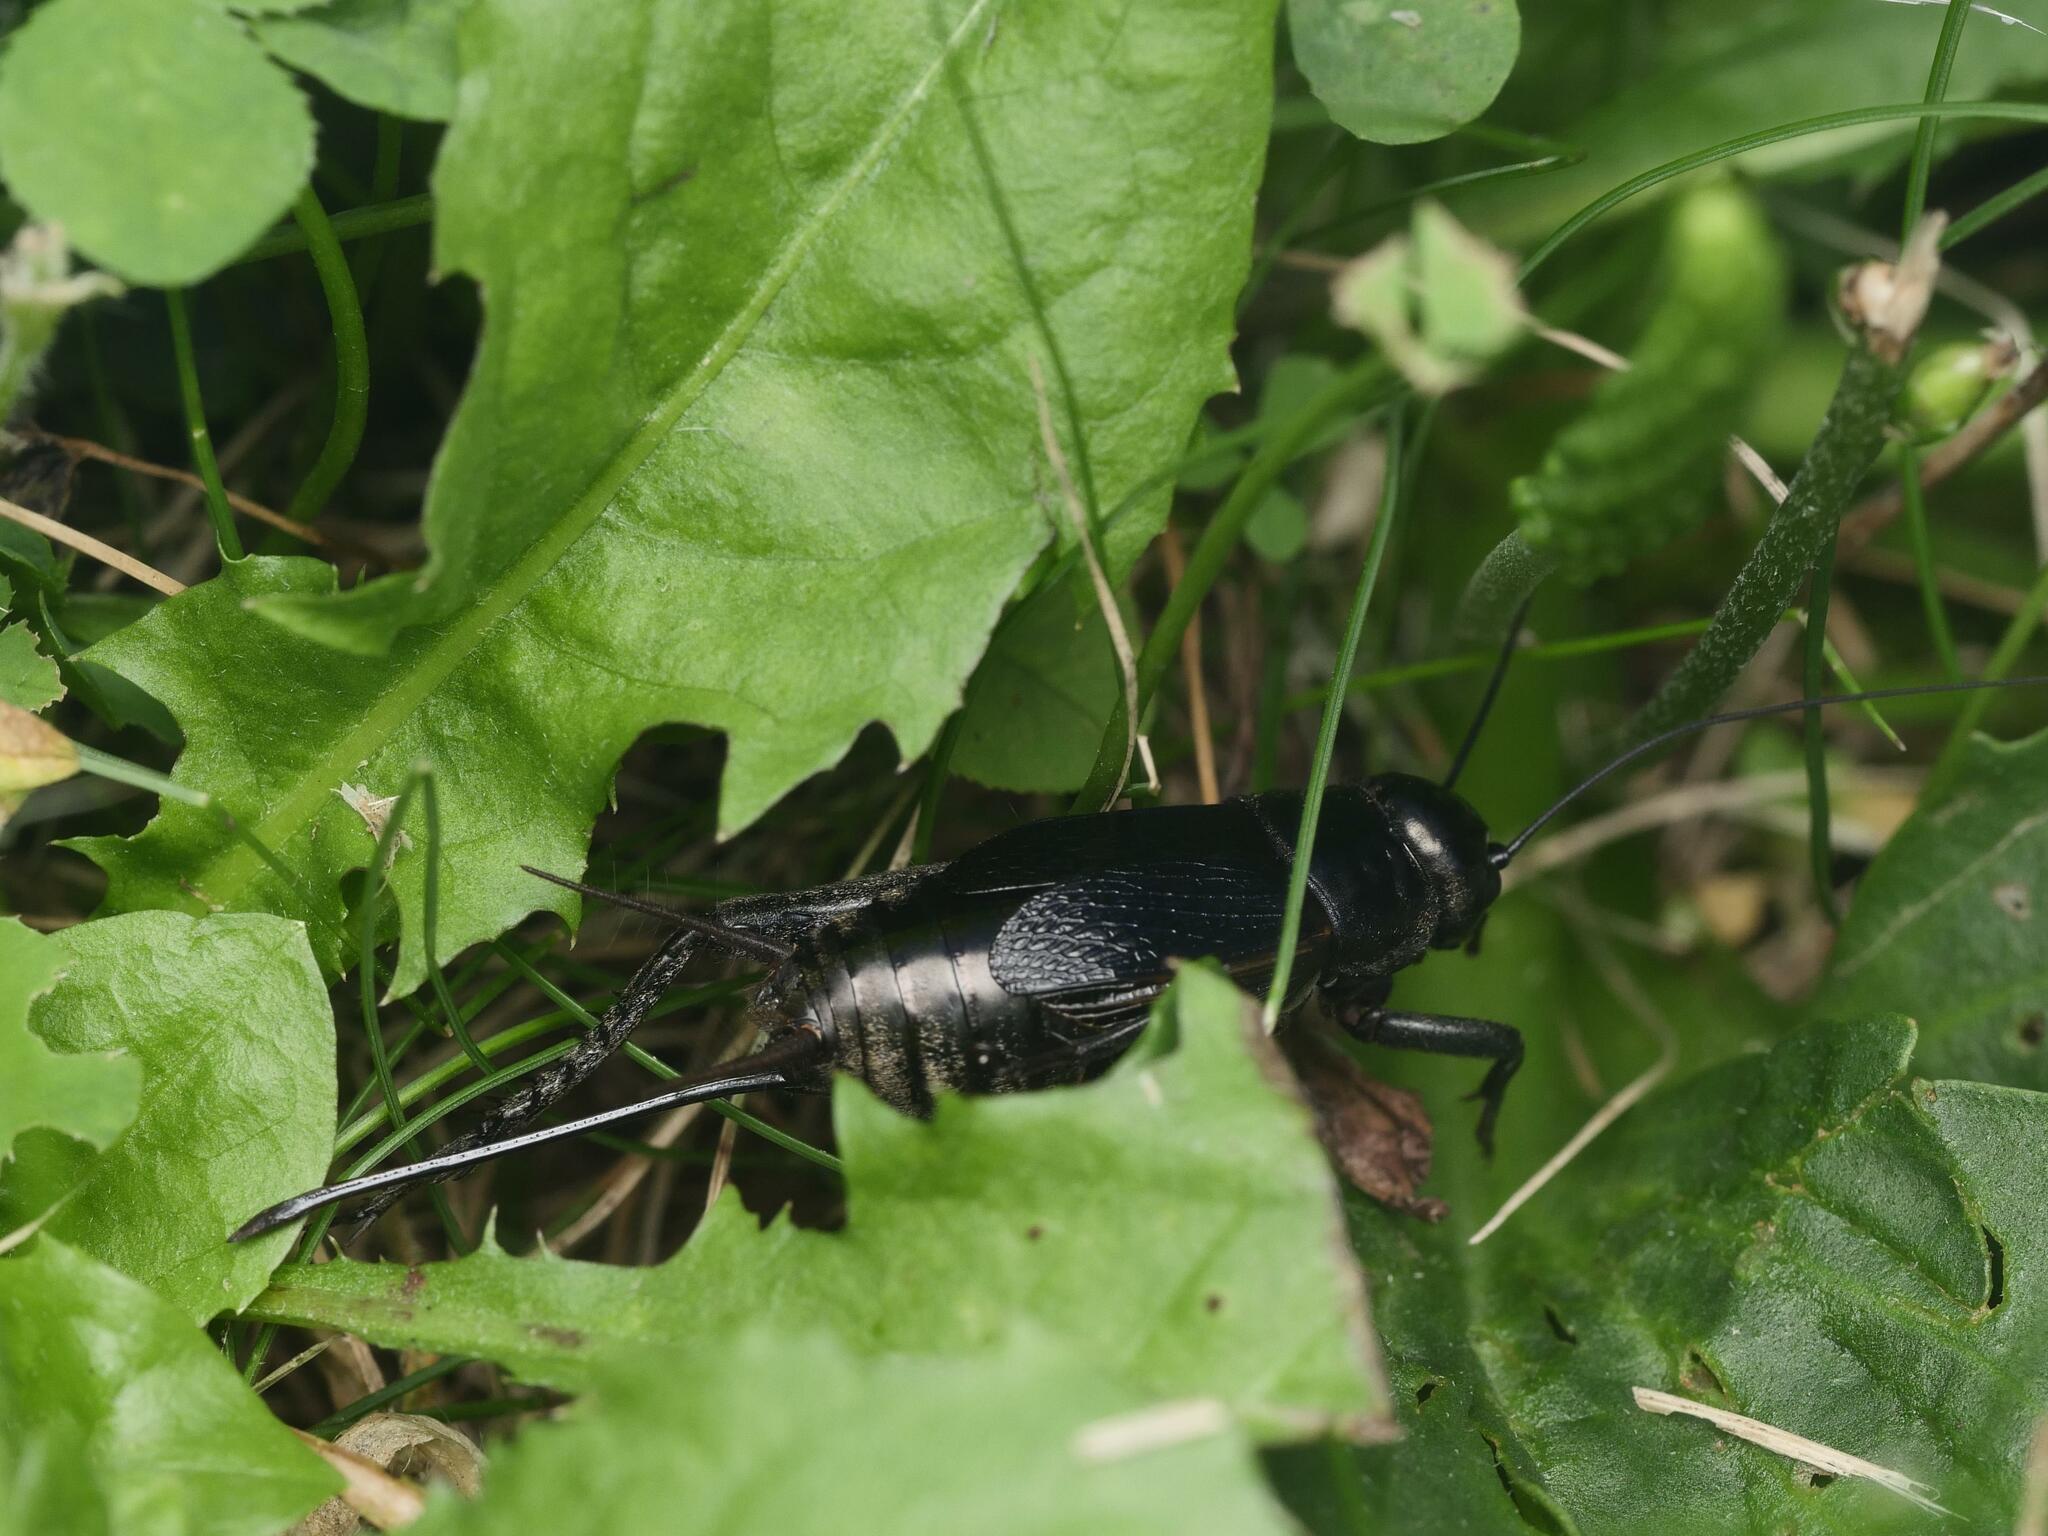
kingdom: Animalia
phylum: Arthropoda
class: Insecta
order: Orthoptera
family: Gryllidae
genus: Gryllus
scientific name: Gryllus pennsylvanicus
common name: Fall field cricket
